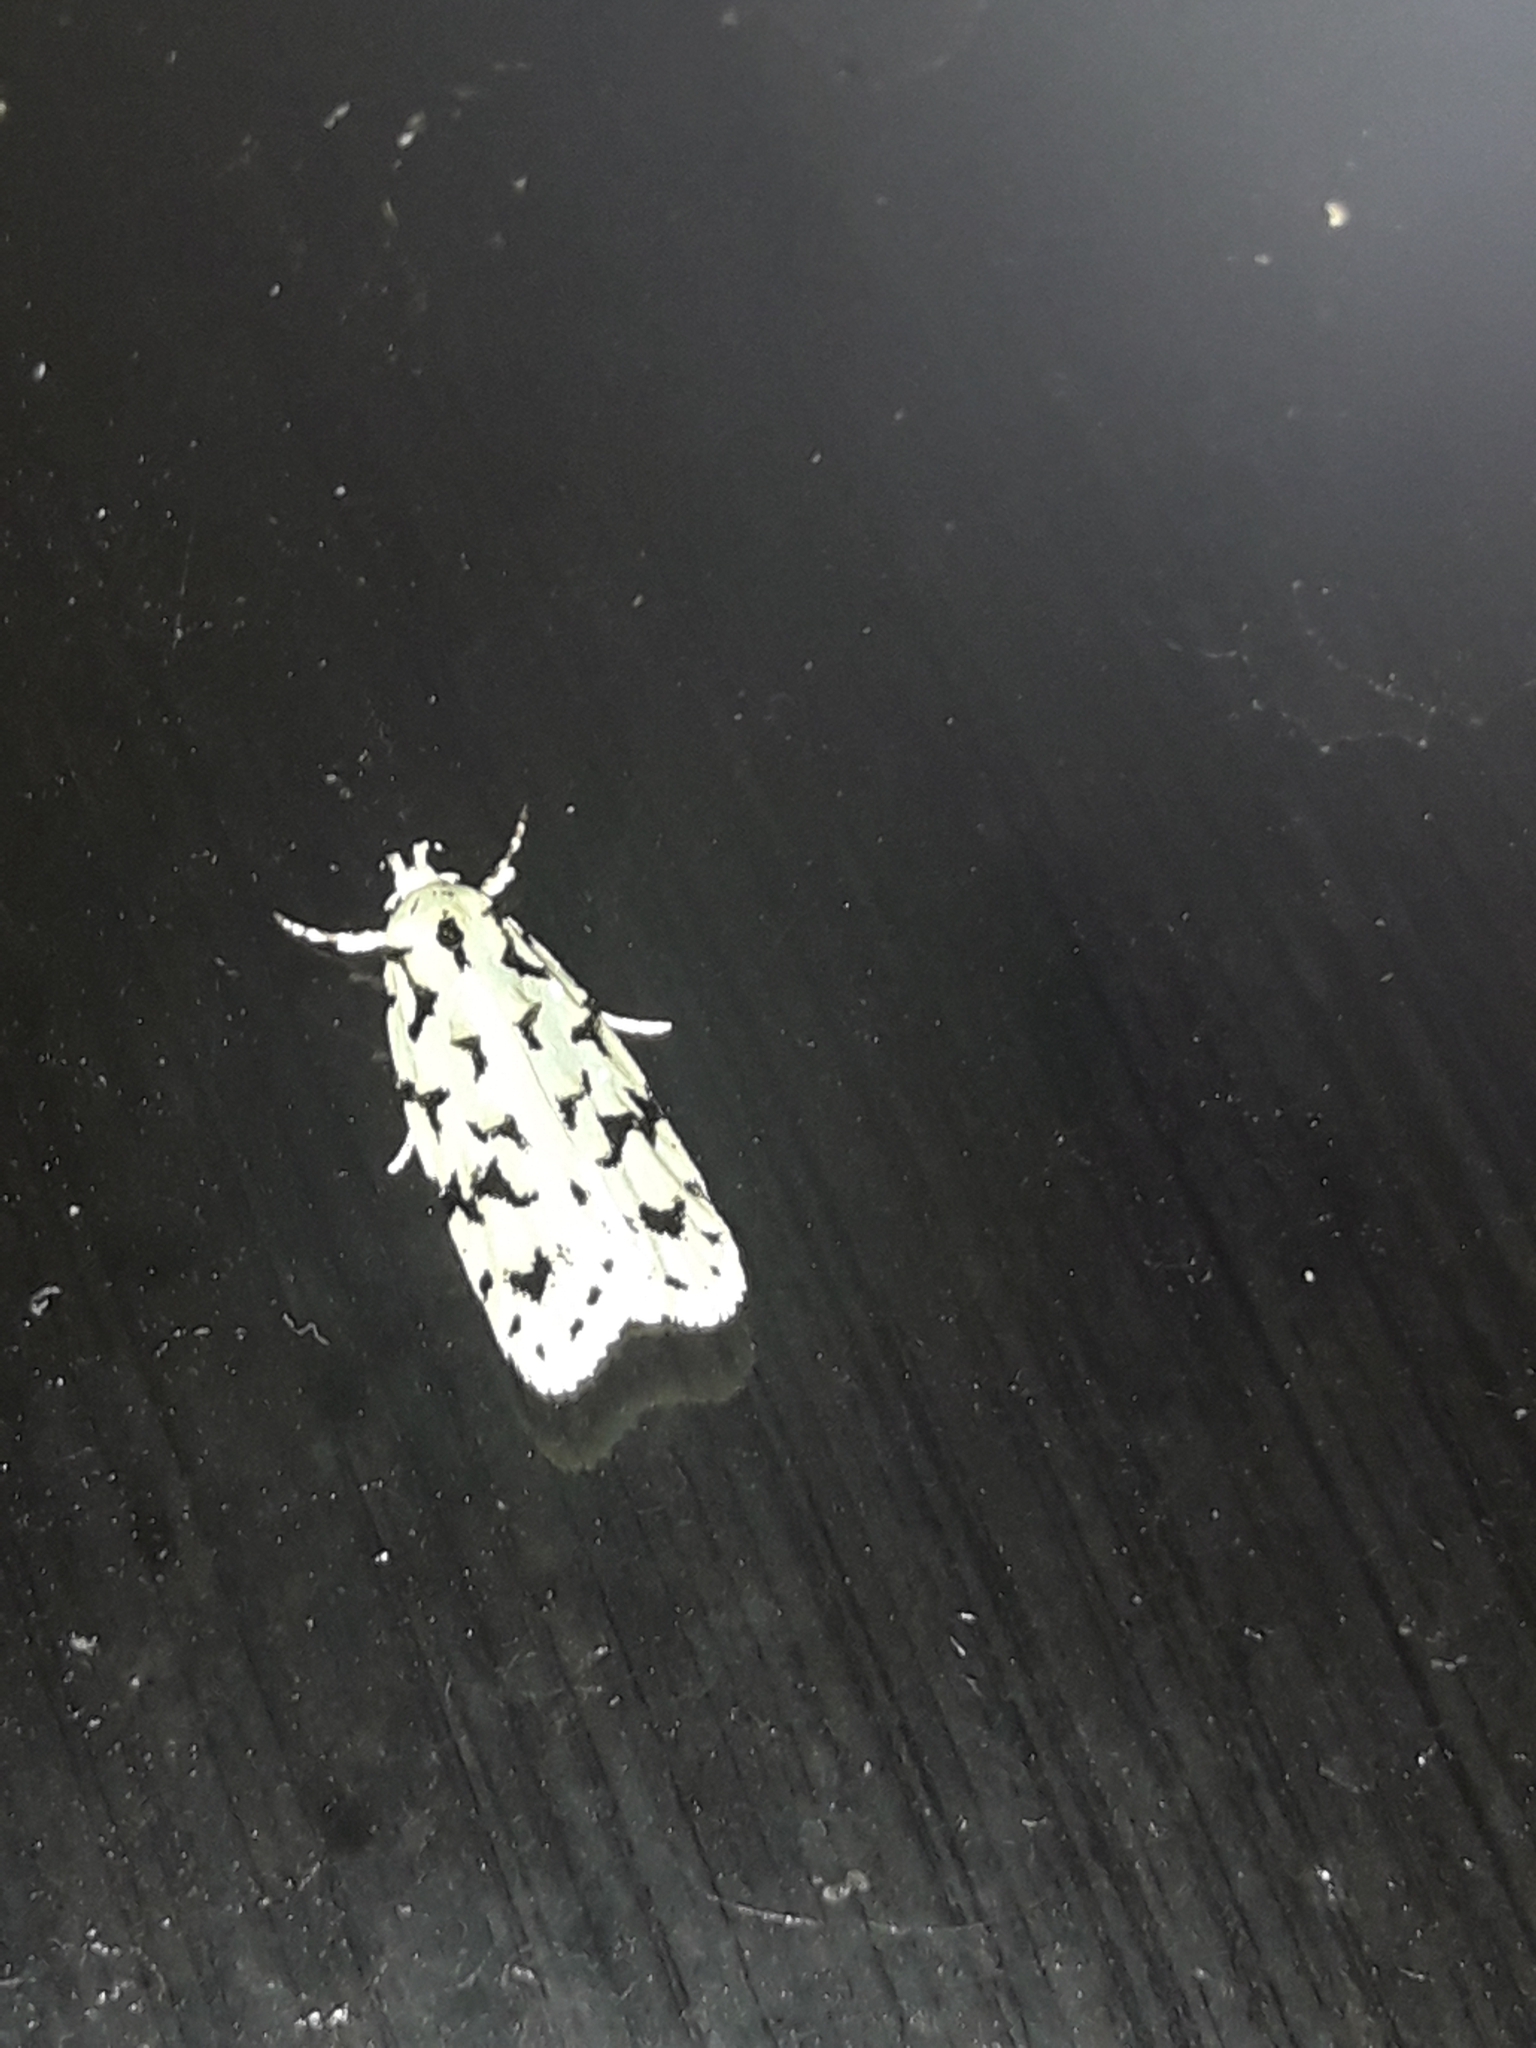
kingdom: Animalia
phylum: Arthropoda
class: Insecta
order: Lepidoptera
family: Oecophoridae
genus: Izatha
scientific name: Izatha peroneanella
